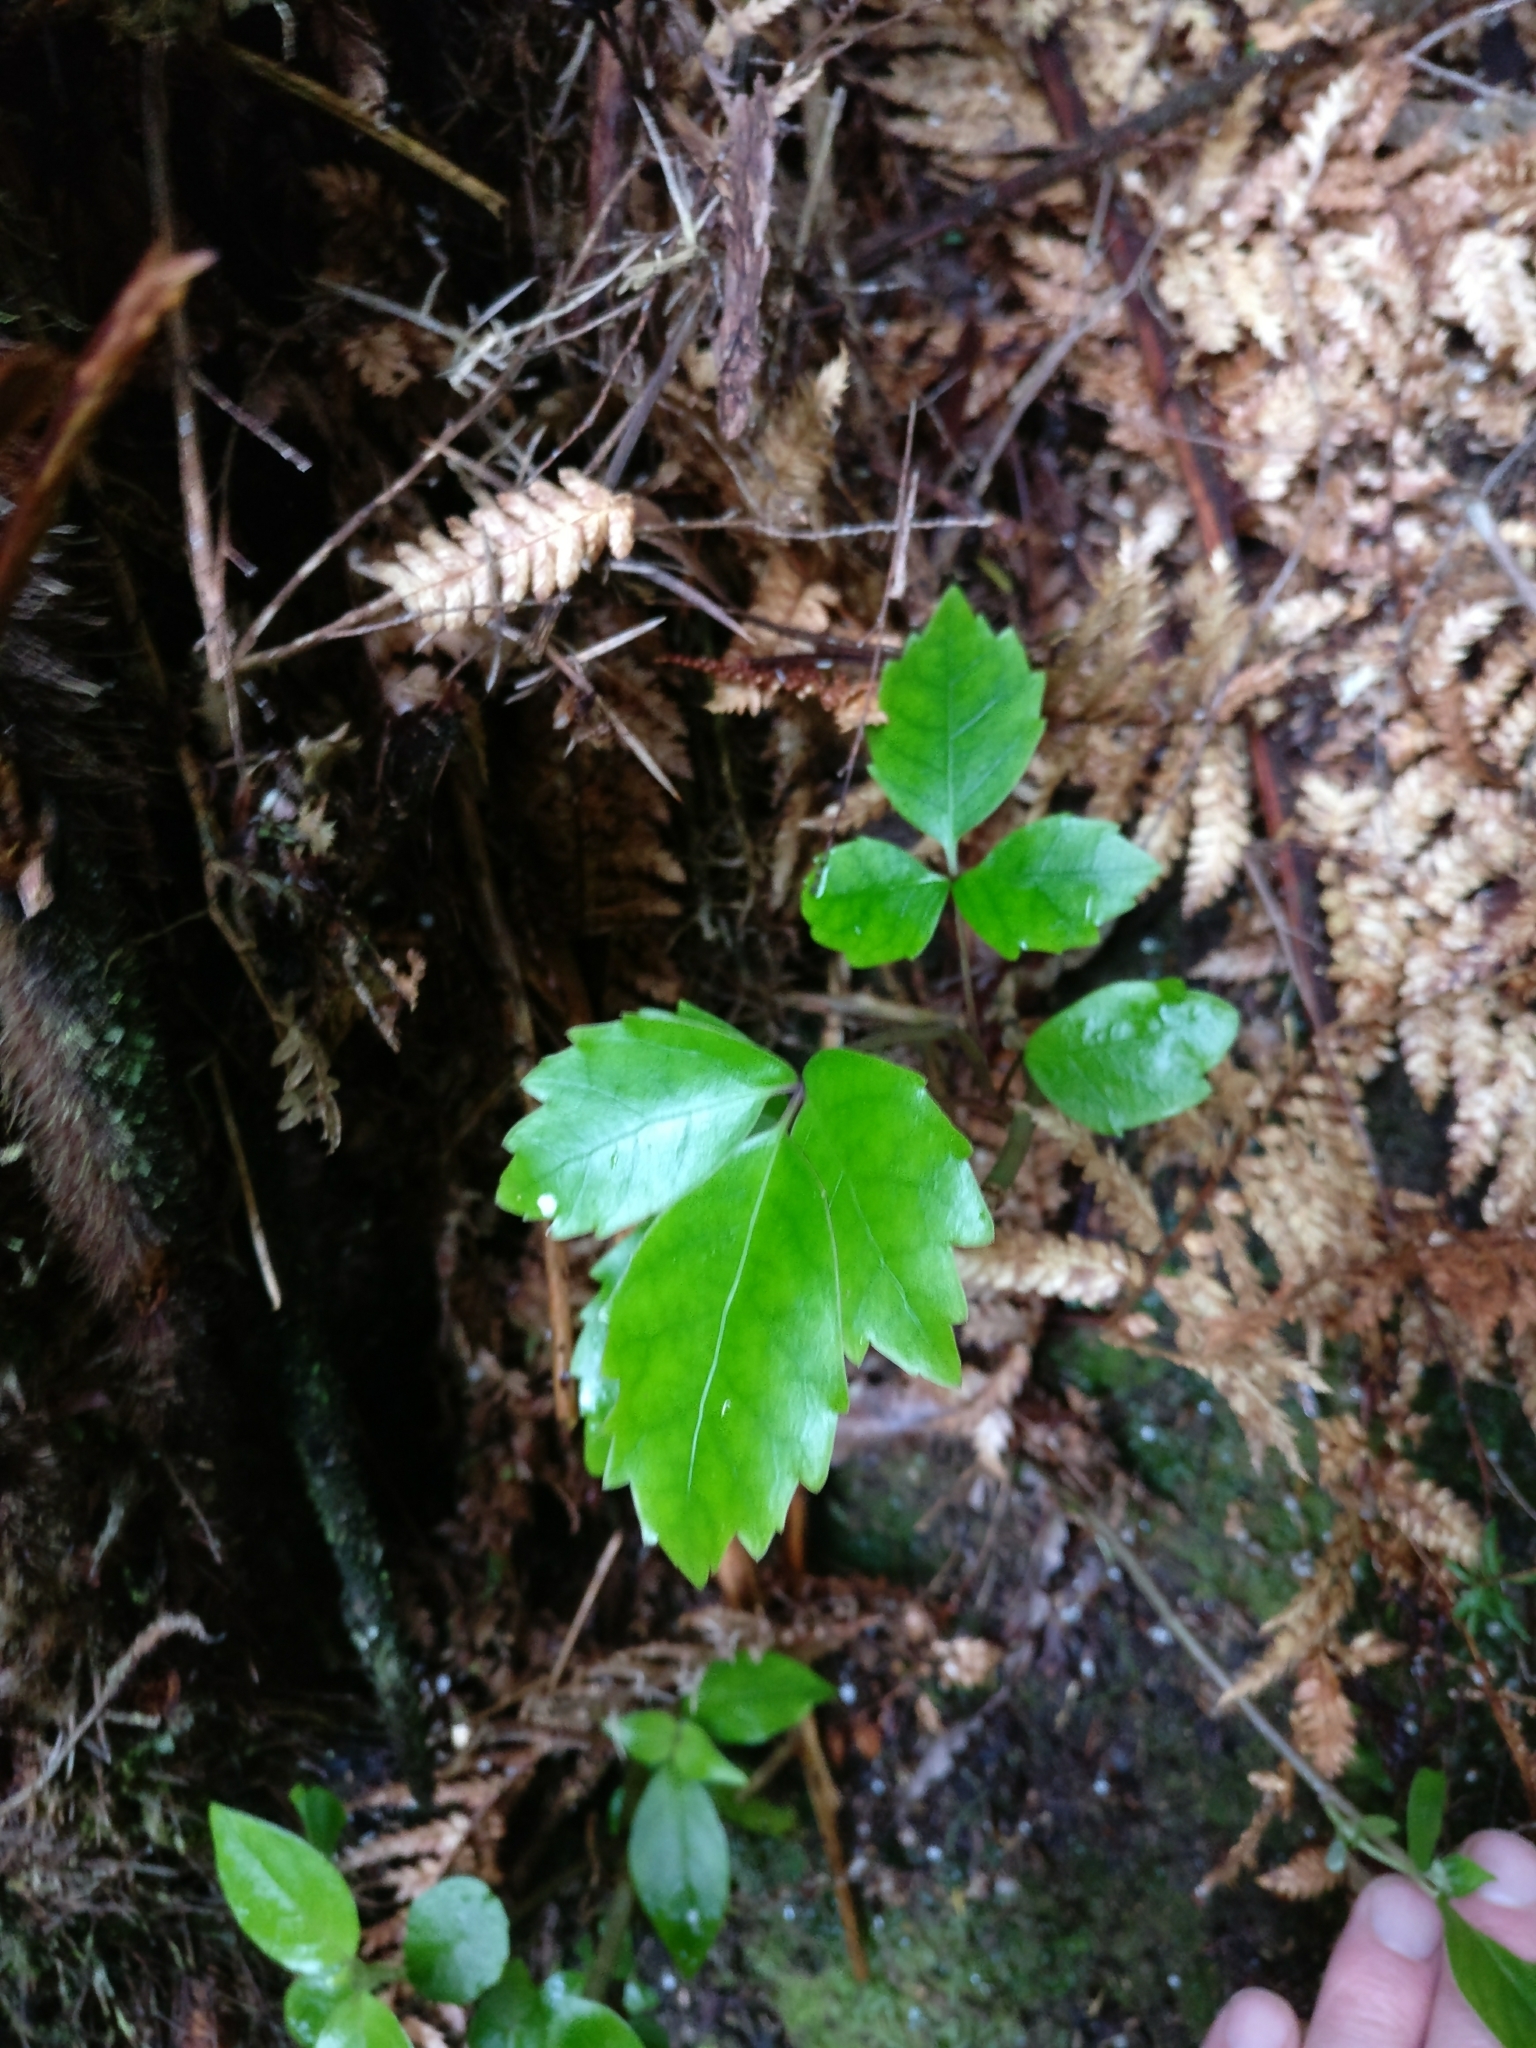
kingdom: Plantae
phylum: Tracheophyta
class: Magnoliopsida
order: Apiales
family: Araliaceae
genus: Neopanax
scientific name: Neopanax arboreus
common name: Five-fingers
